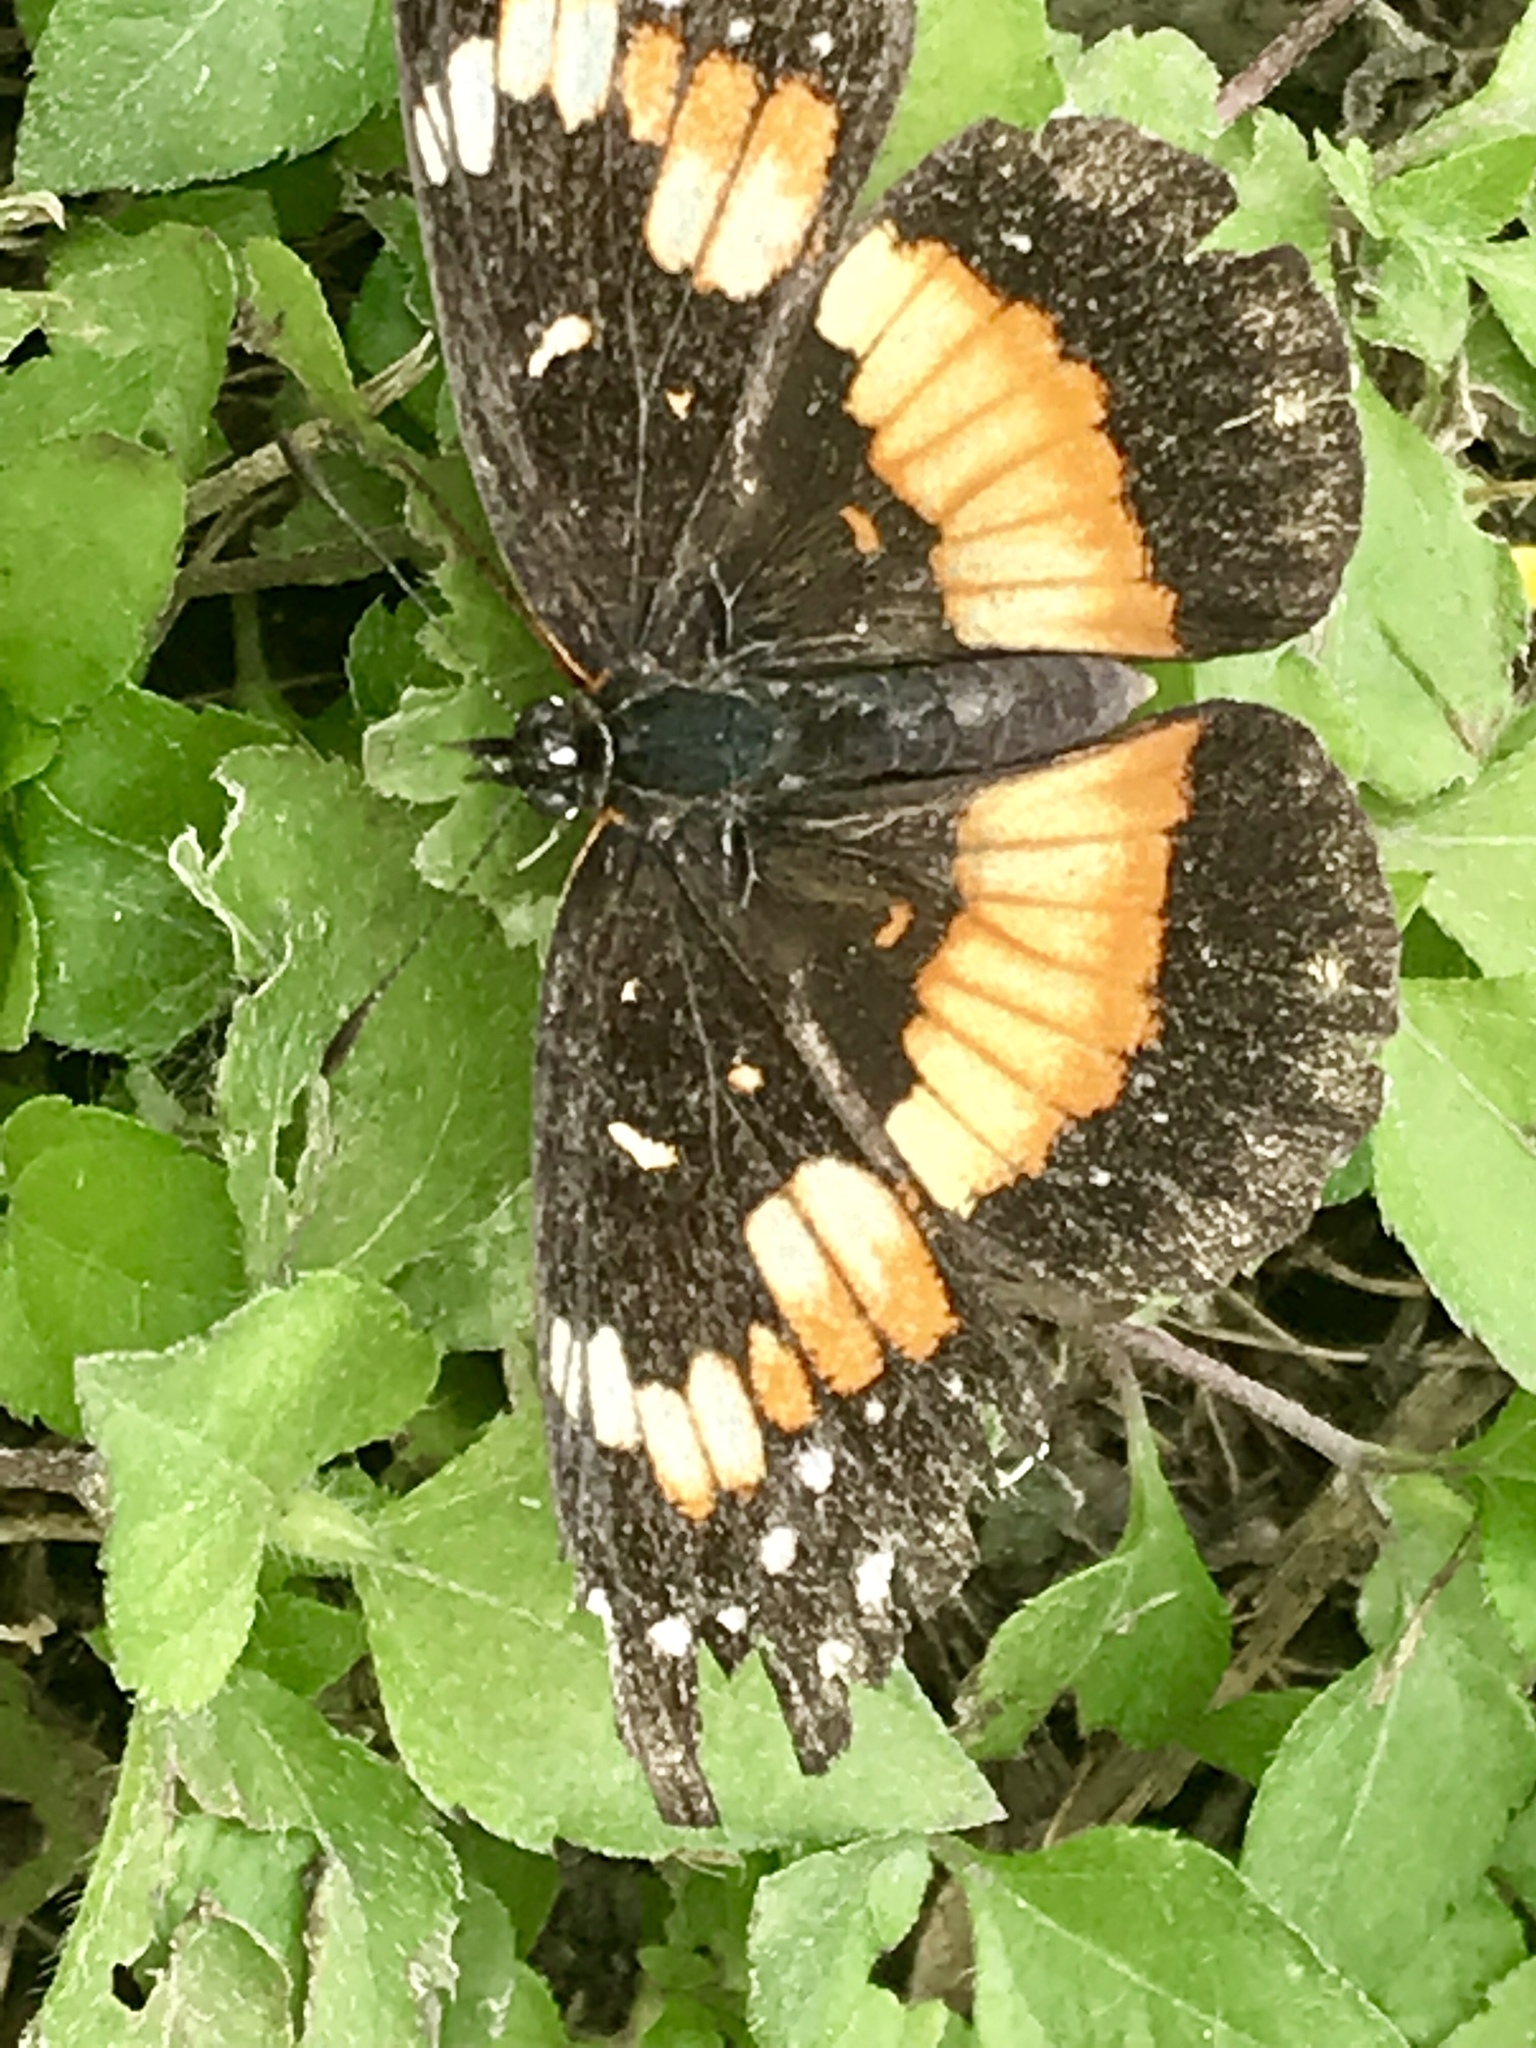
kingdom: Animalia
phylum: Arthropoda
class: Insecta
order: Lepidoptera
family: Nymphalidae
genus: Chlosyne
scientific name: Chlosyne lacinia
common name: Bordered patch
